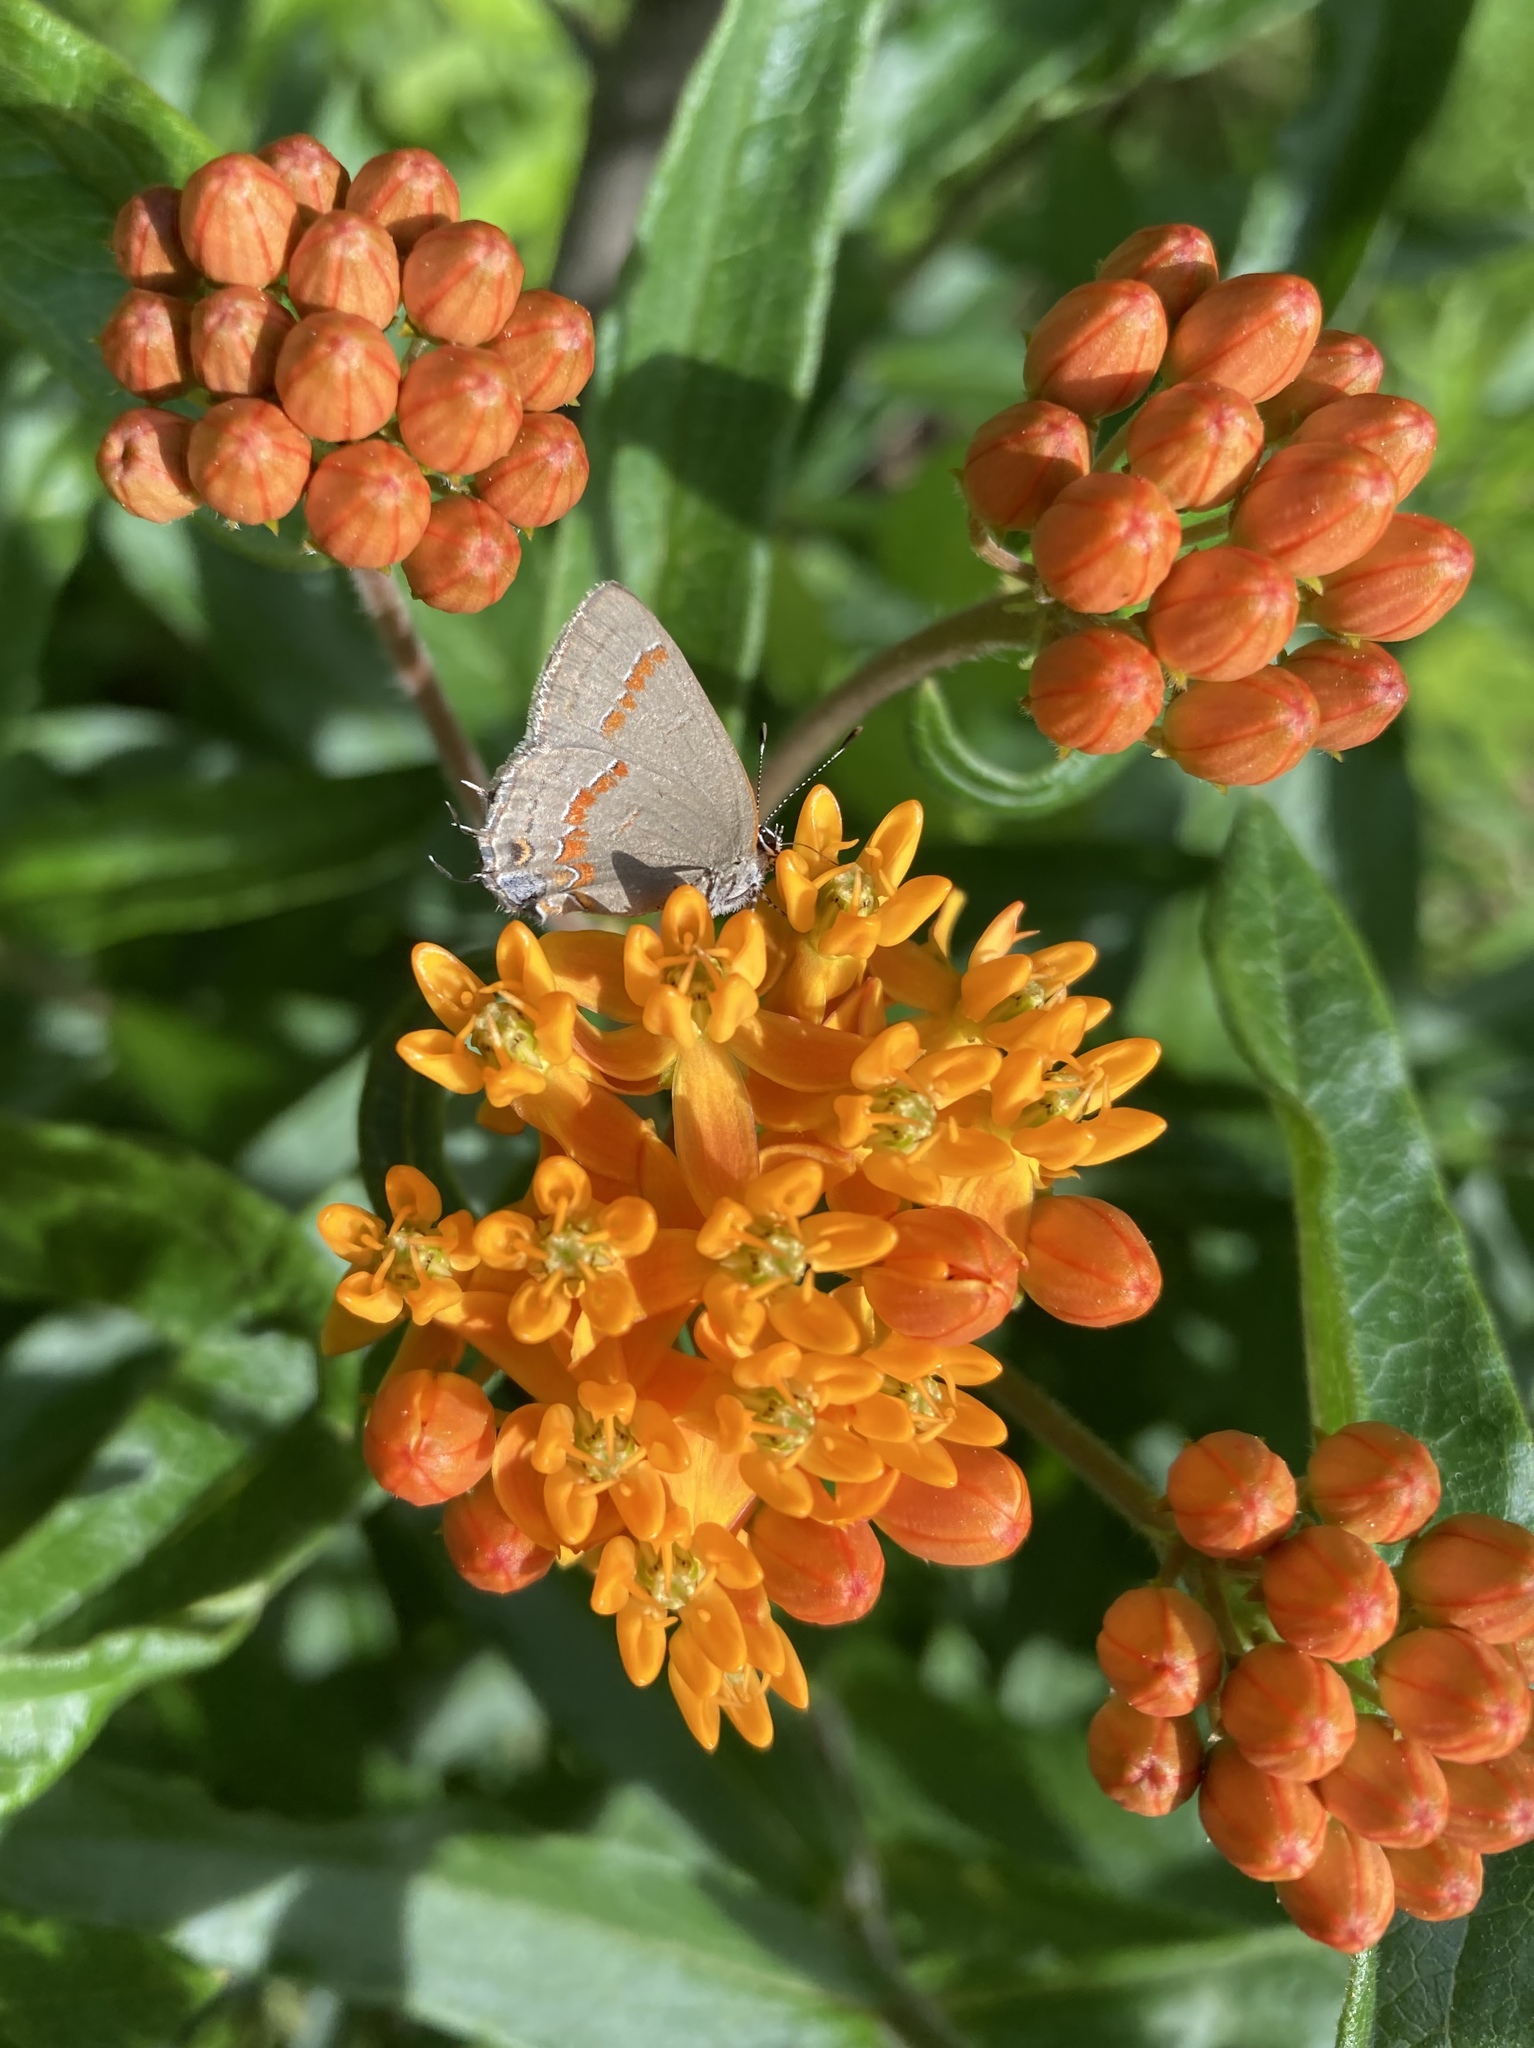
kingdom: Animalia
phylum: Arthropoda
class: Insecta
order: Lepidoptera
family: Lycaenidae
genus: Calycopis
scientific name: Calycopis cecrops
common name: Red-banded hairstreak
